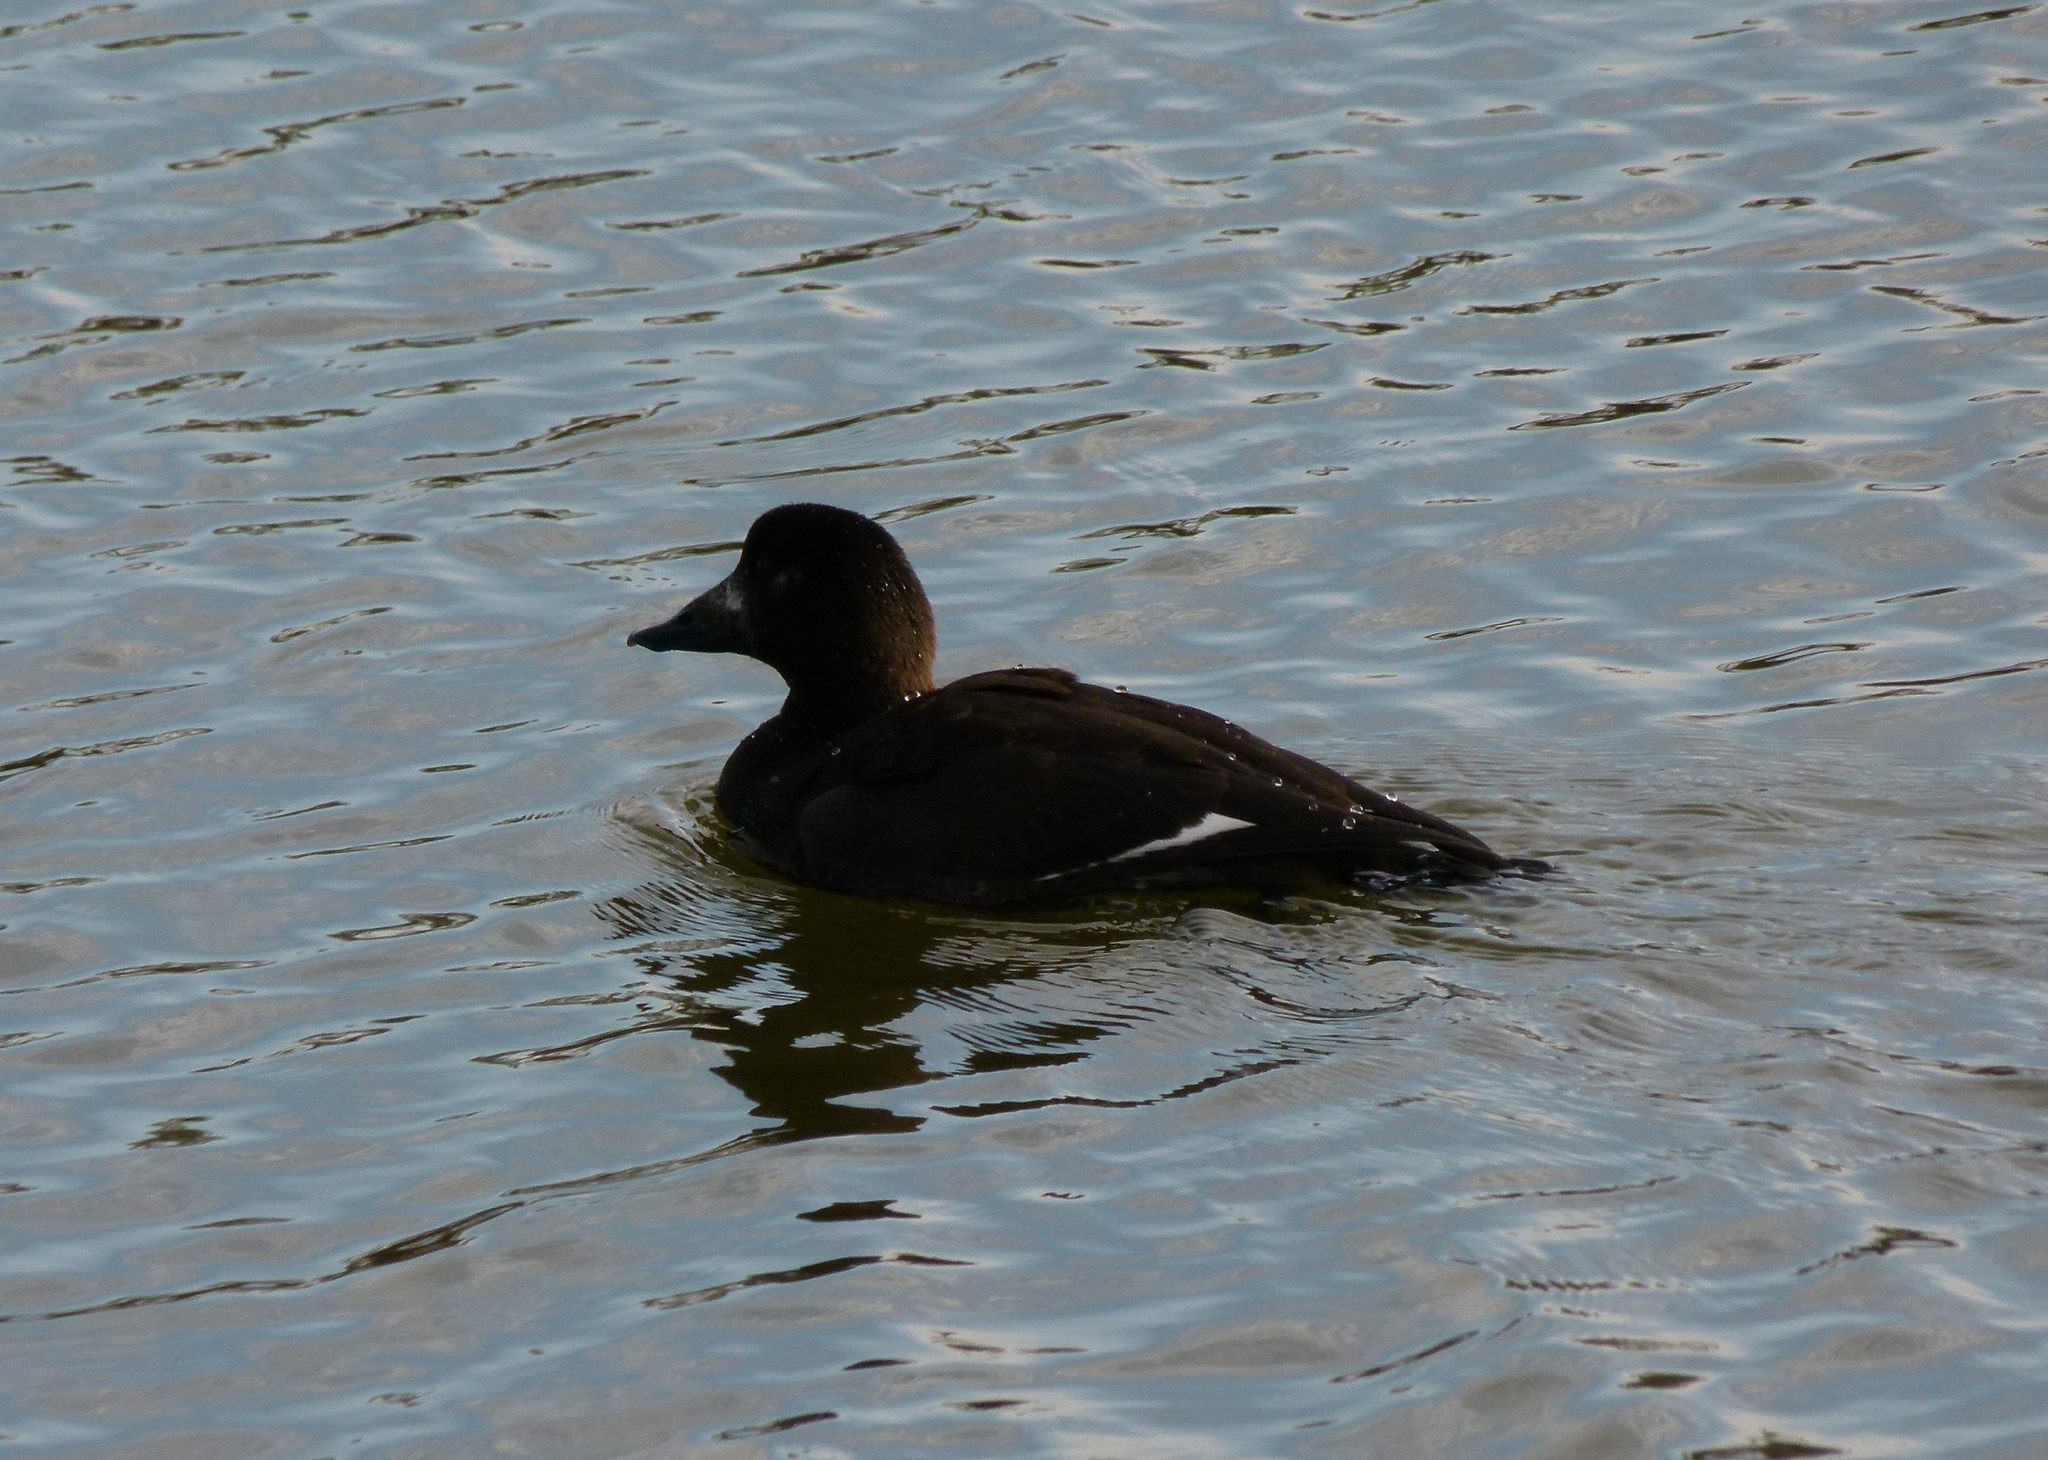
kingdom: Animalia
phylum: Chordata
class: Aves
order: Anseriformes
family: Anatidae
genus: Melanitta
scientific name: Melanitta deglandi
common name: White-winged scoter
